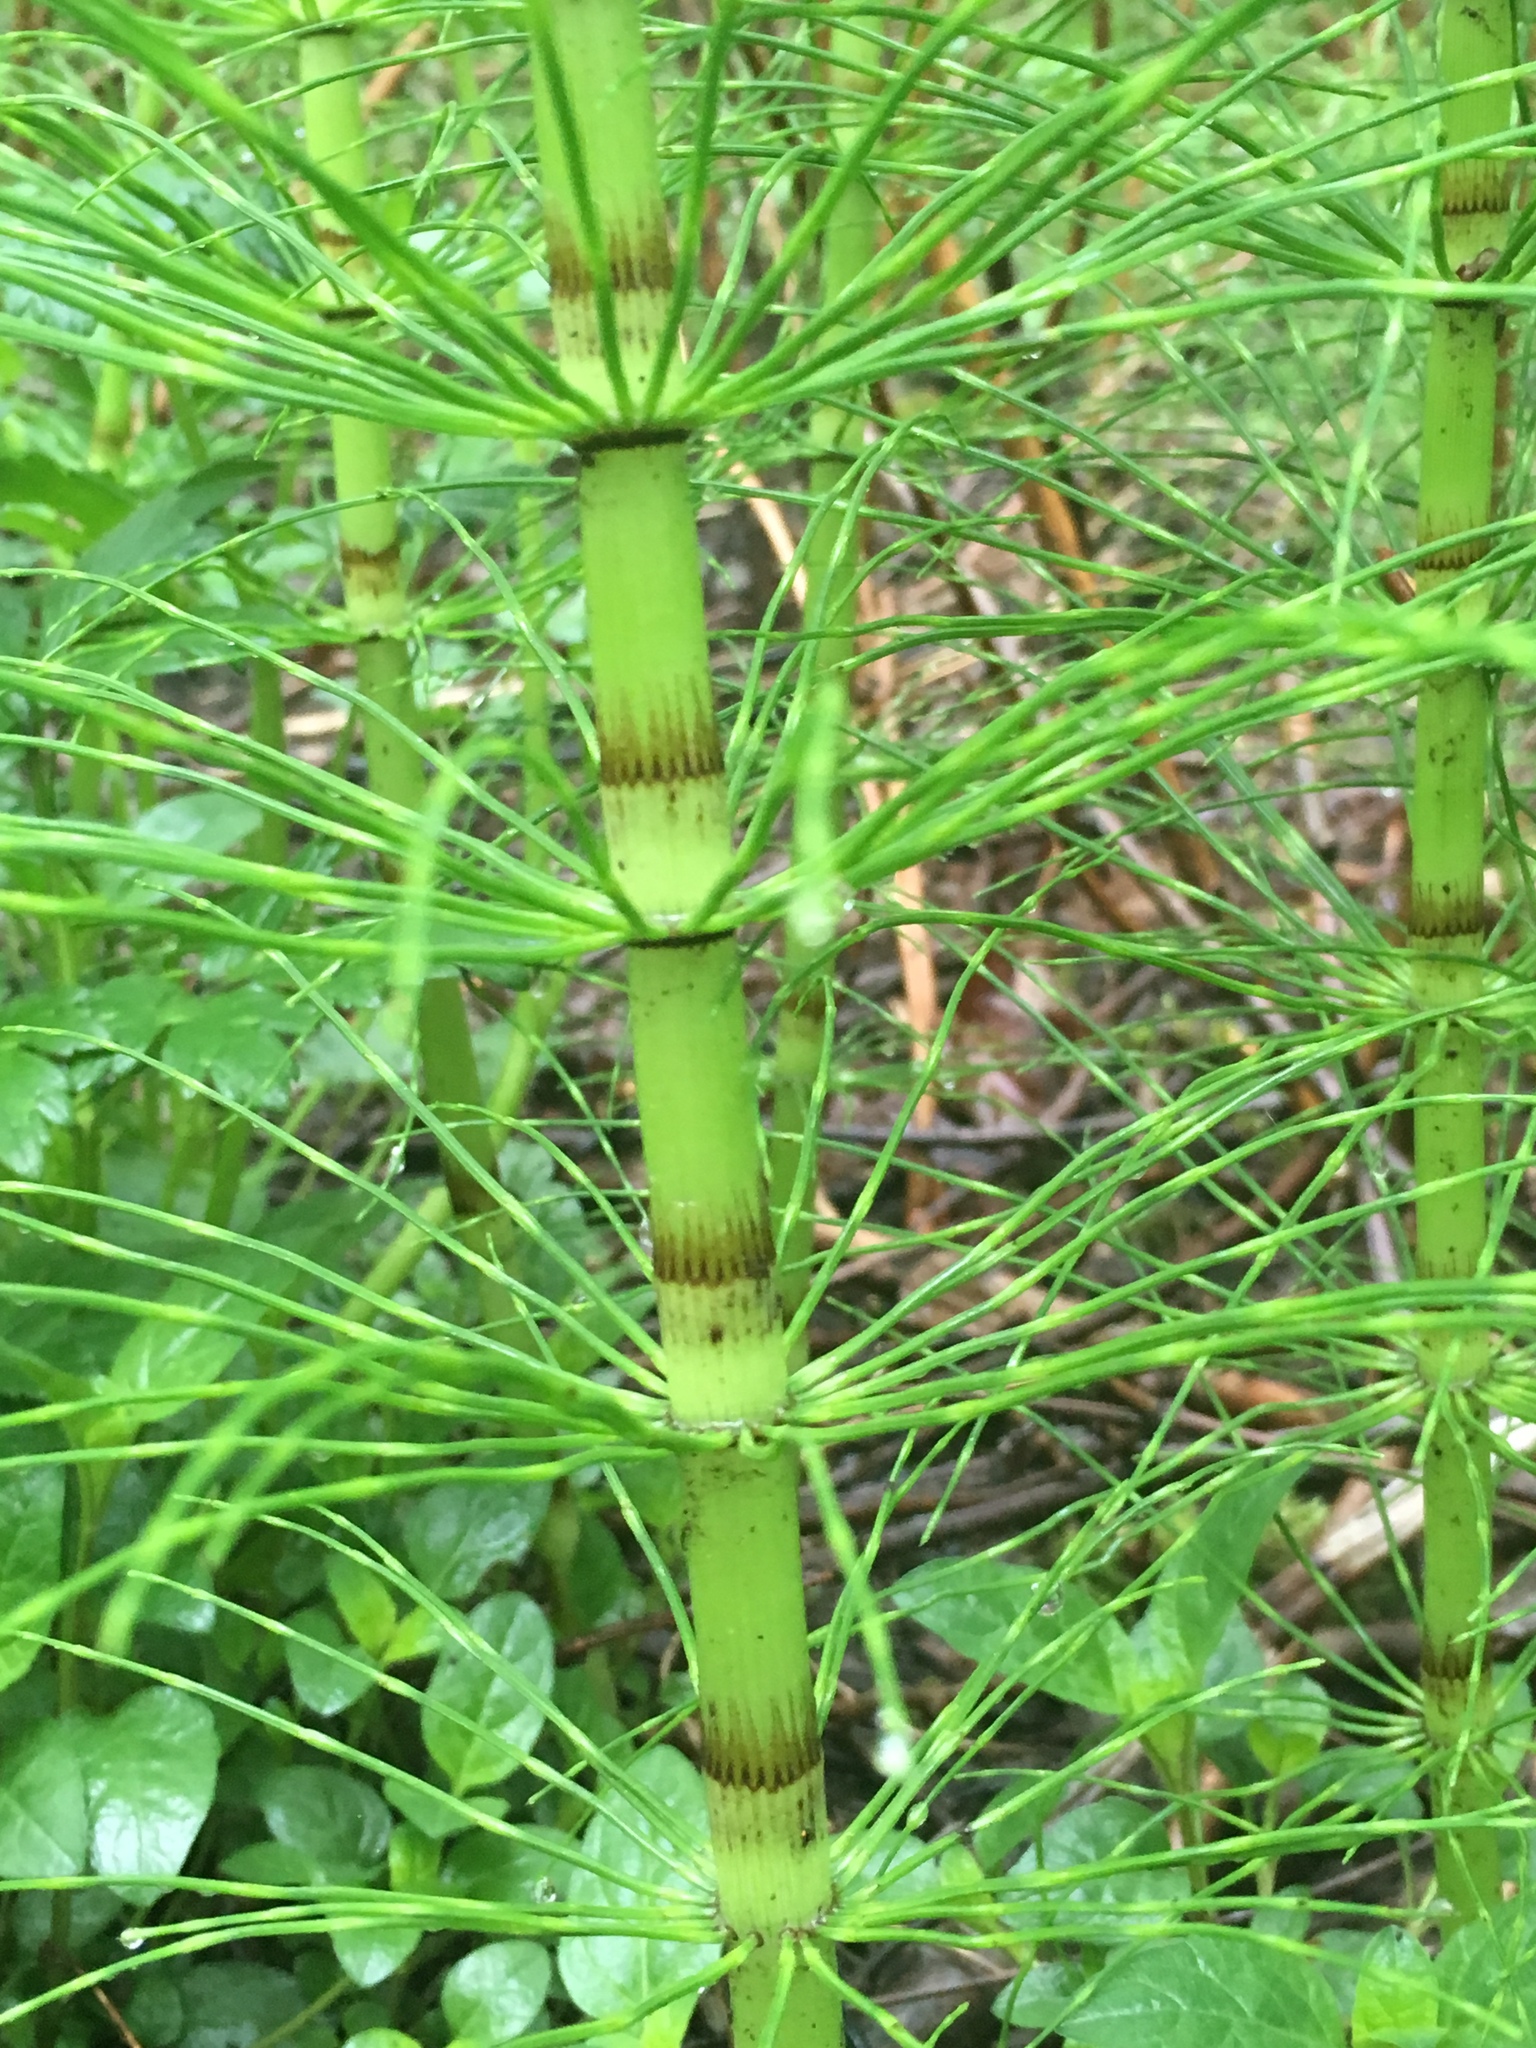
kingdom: Plantae
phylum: Tracheophyta
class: Polypodiopsida
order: Equisetales
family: Equisetaceae
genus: Equisetum
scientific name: Equisetum braunii
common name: Braun's horsetail
